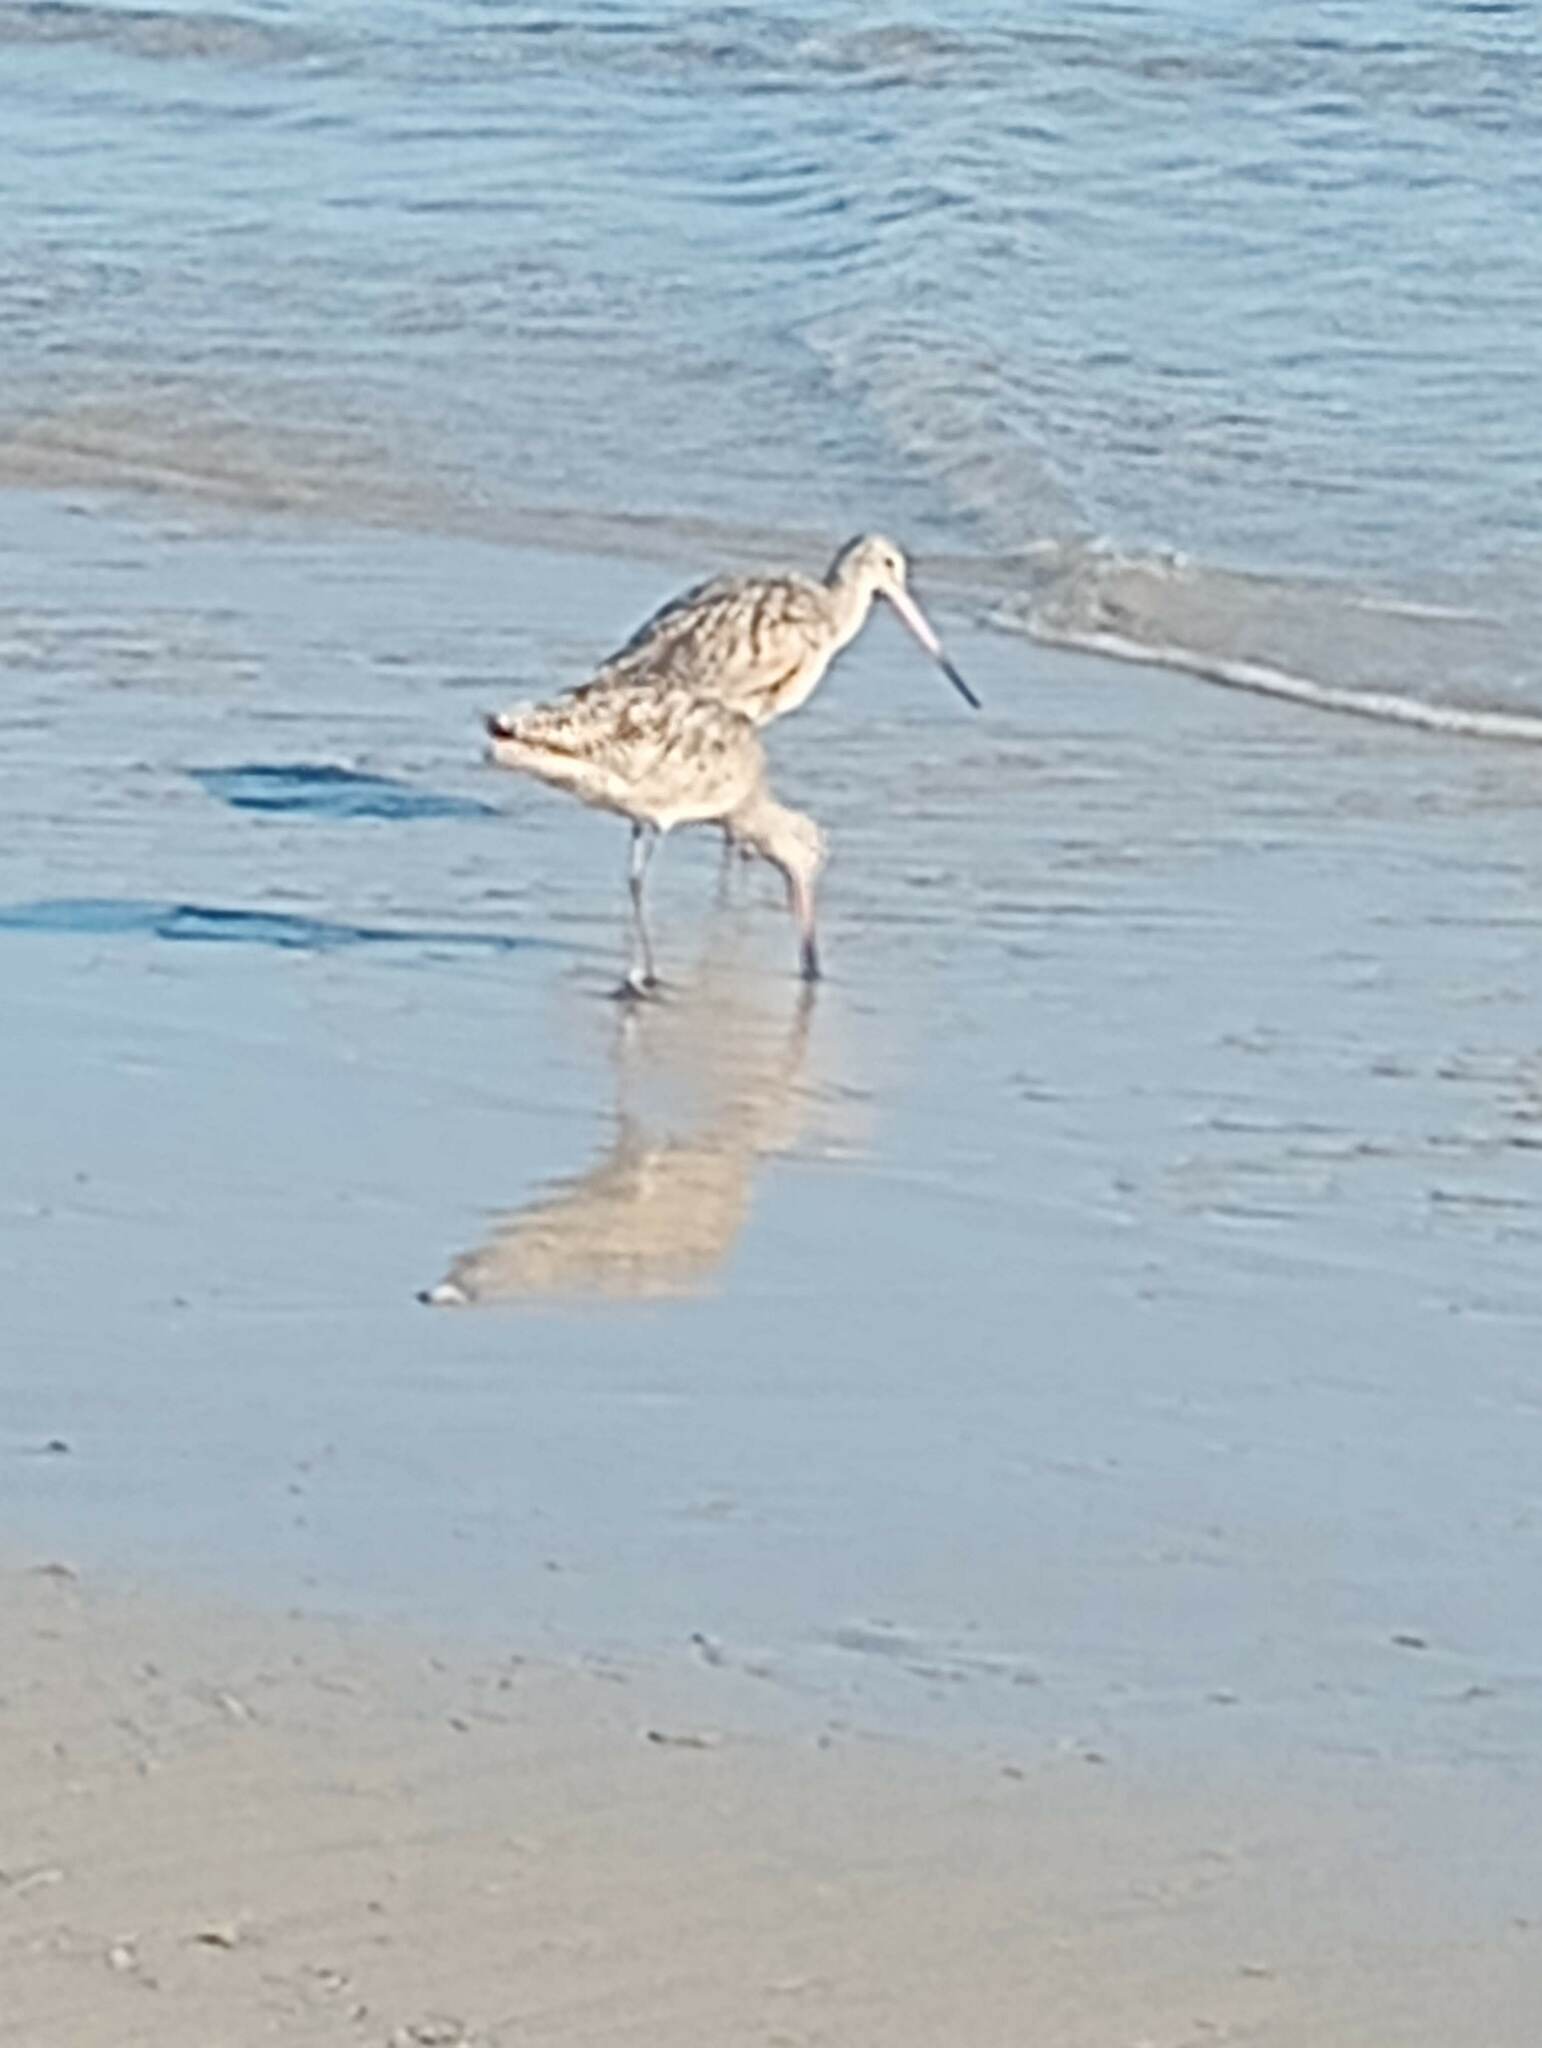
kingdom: Animalia
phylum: Chordata
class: Aves
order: Charadriiformes
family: Scolopacidae
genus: Limosa
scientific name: Limosa fedoa
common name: Marbled godwit
